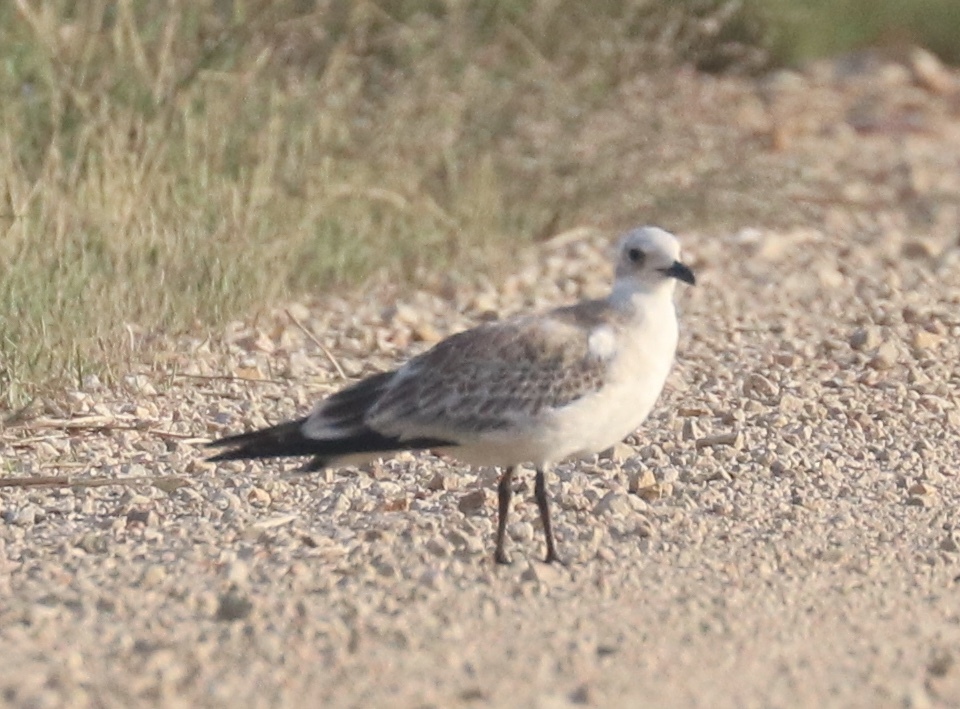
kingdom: Animalia
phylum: Chordata
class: Aves
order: Charadriiformes
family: Laridae
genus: Ichthyaetus
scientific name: Ichthyaetus melanocephalus
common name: Mediterranean gull
